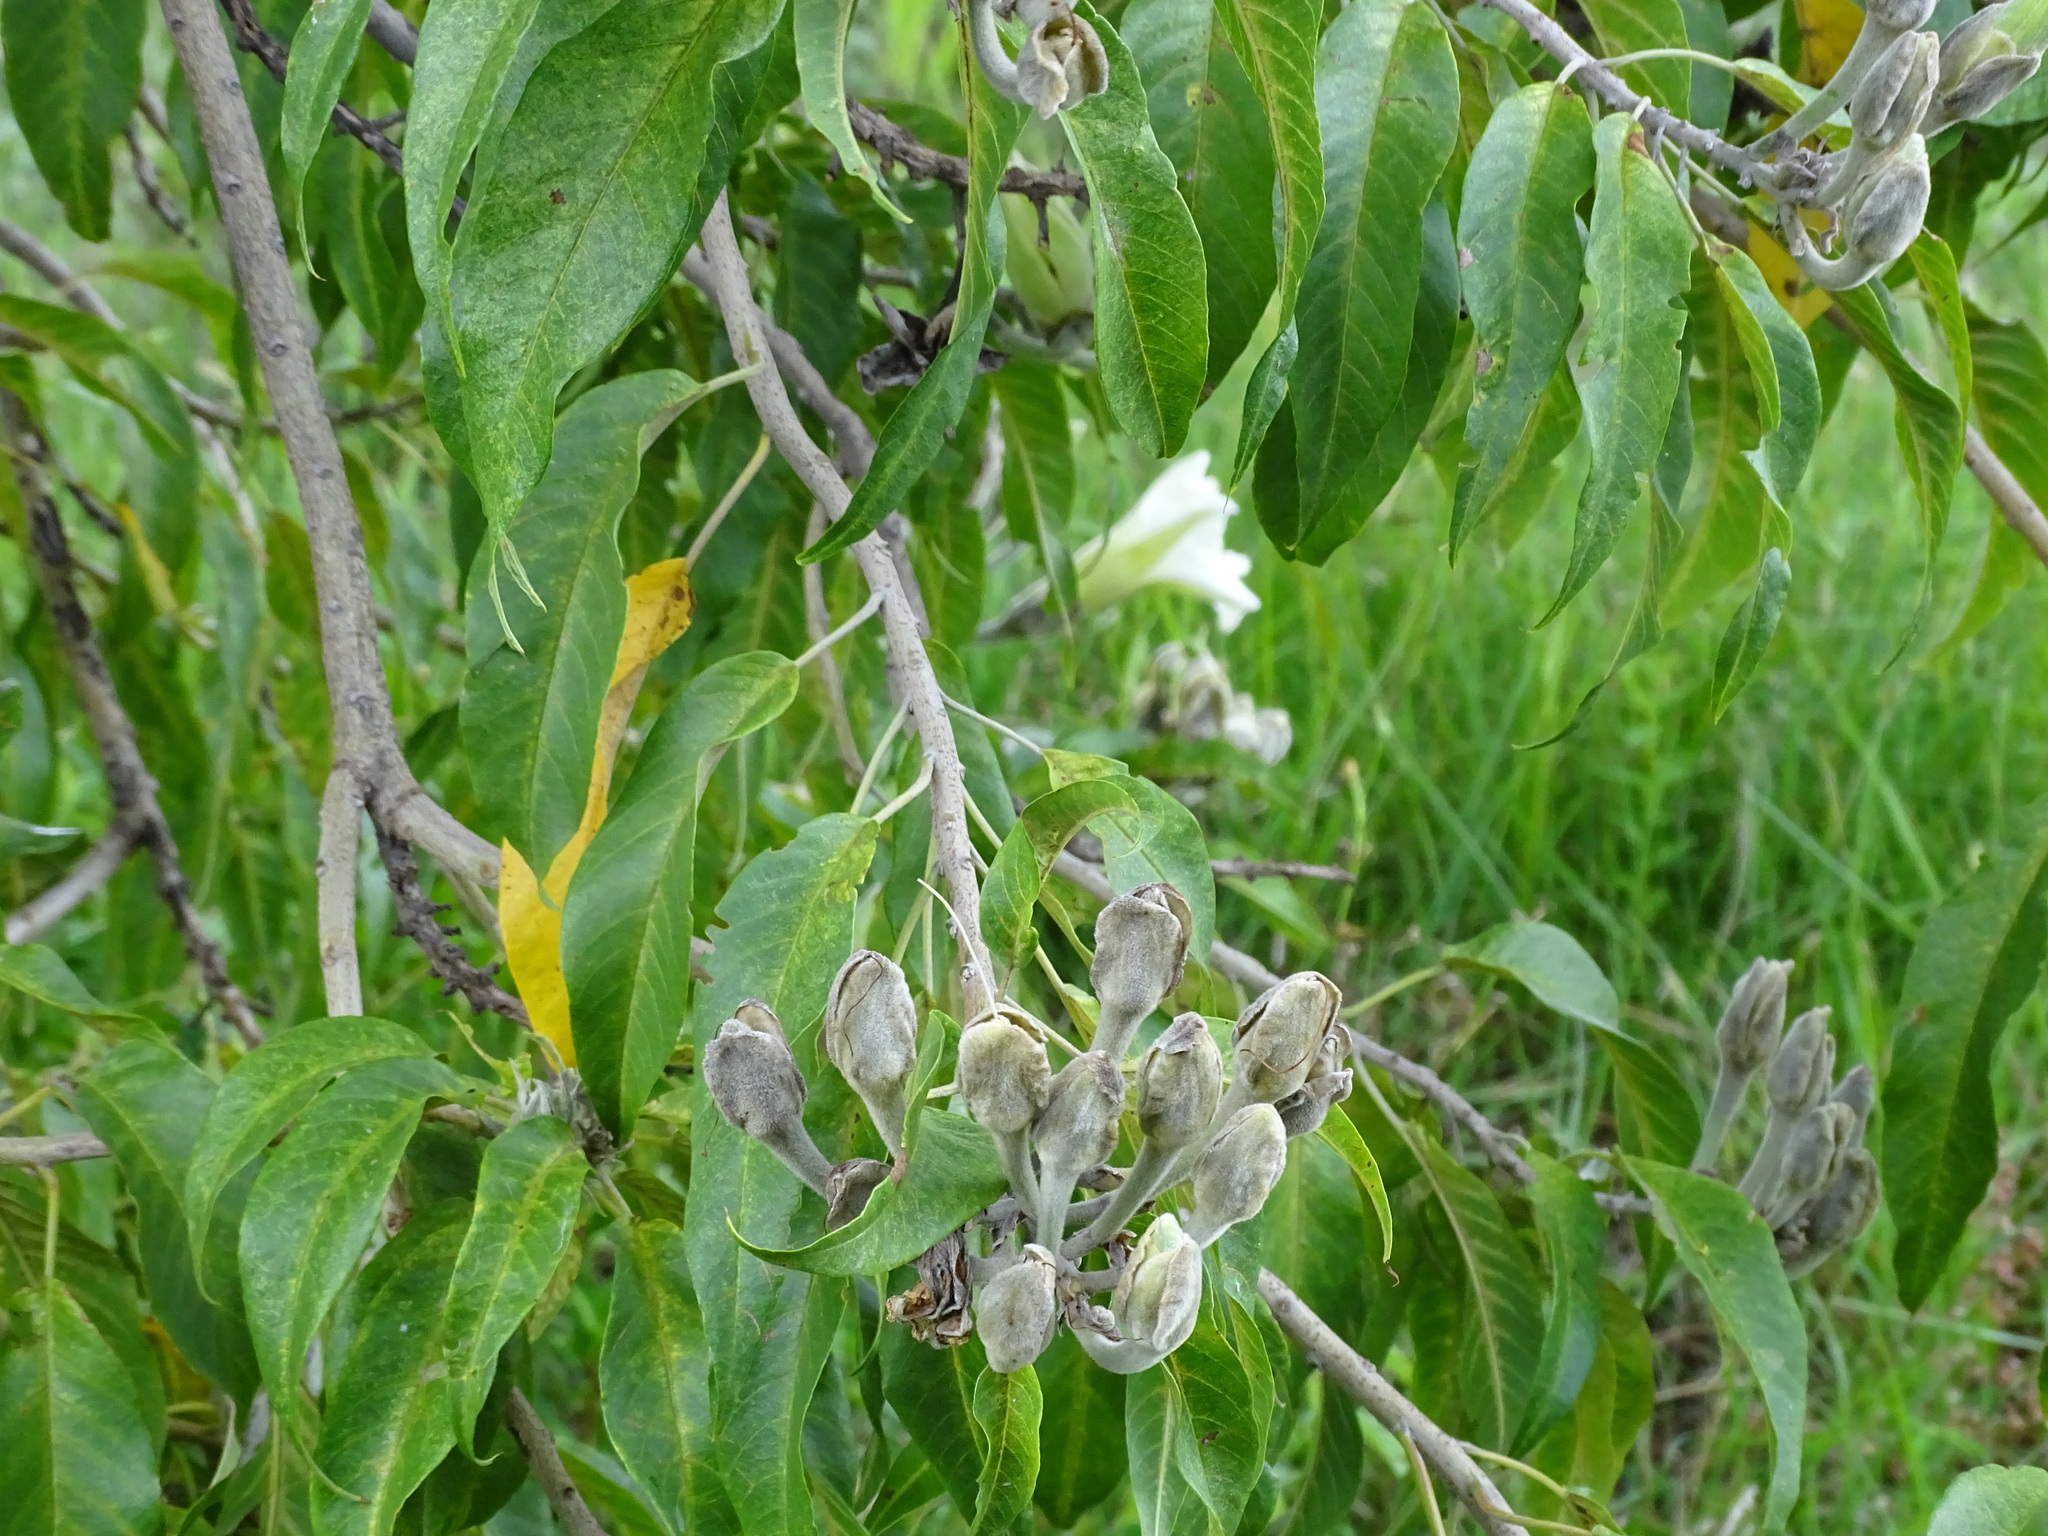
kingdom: Plantae
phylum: Tracheophyta
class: Magnoliopsida
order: Solanales
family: Convolvulaceae
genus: Ipomoea
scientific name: Ipomoea murucoides
